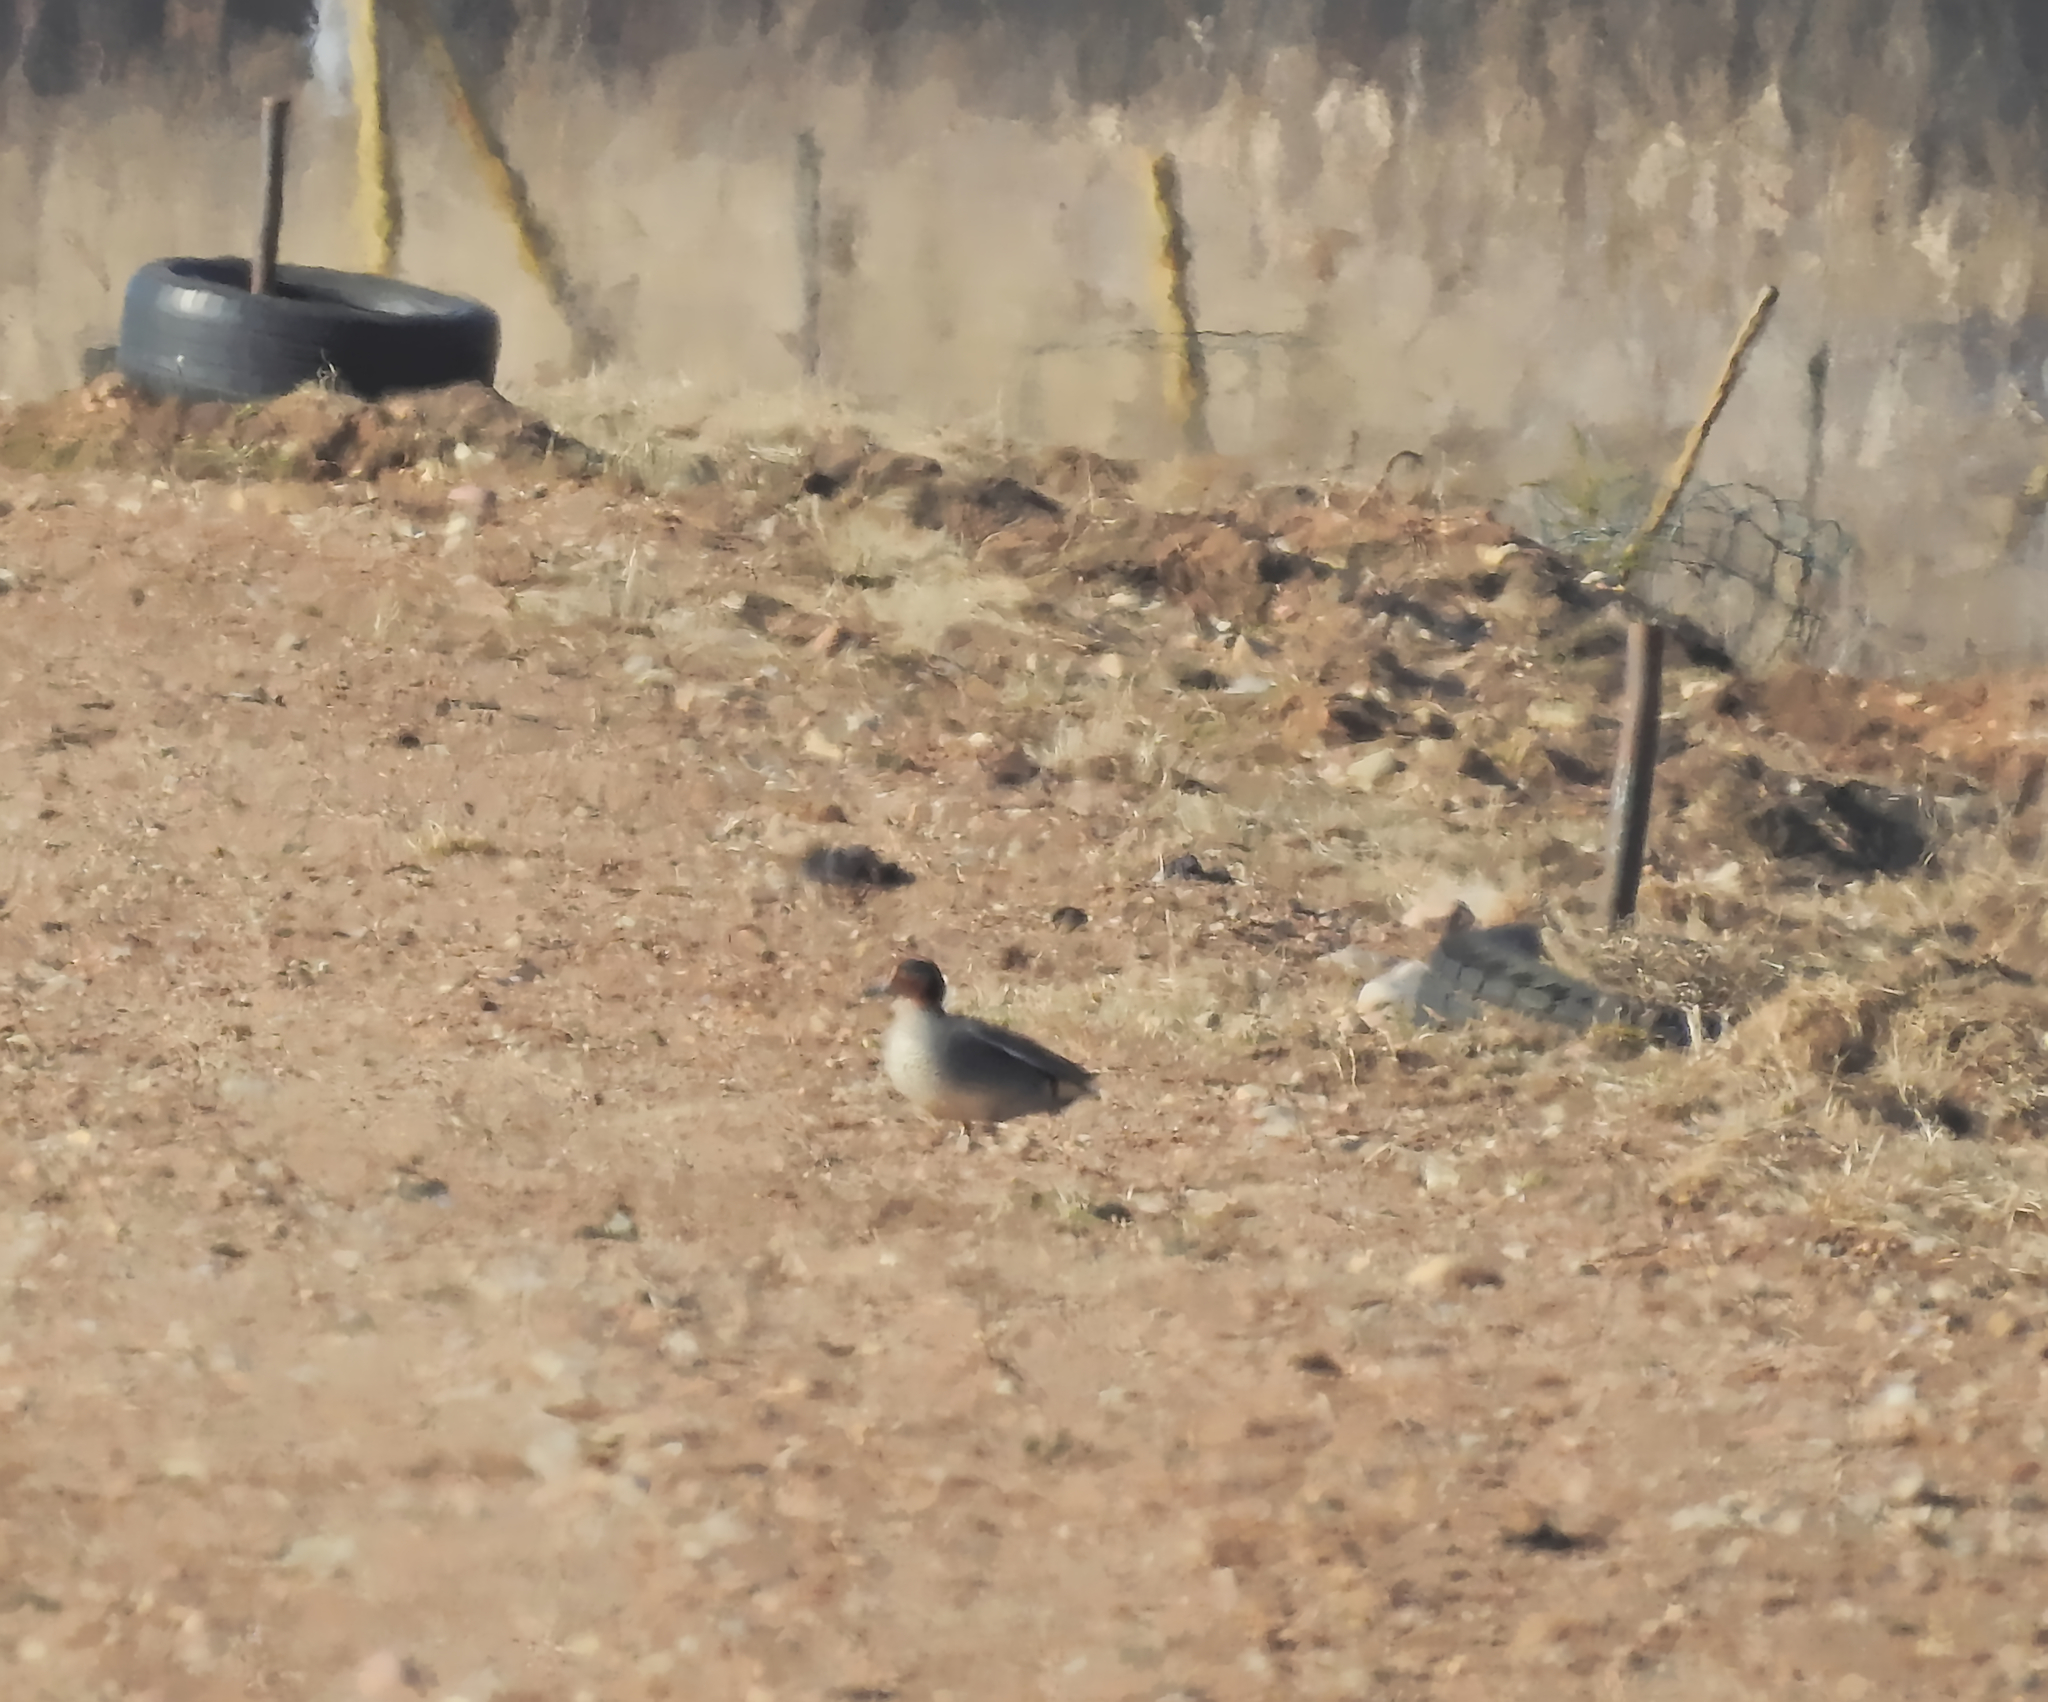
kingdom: Animalia
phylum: Chordata
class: Aves
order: Anseriformes
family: Anatidae
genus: Anas
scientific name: Anas crecca
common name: Eurasian teal
